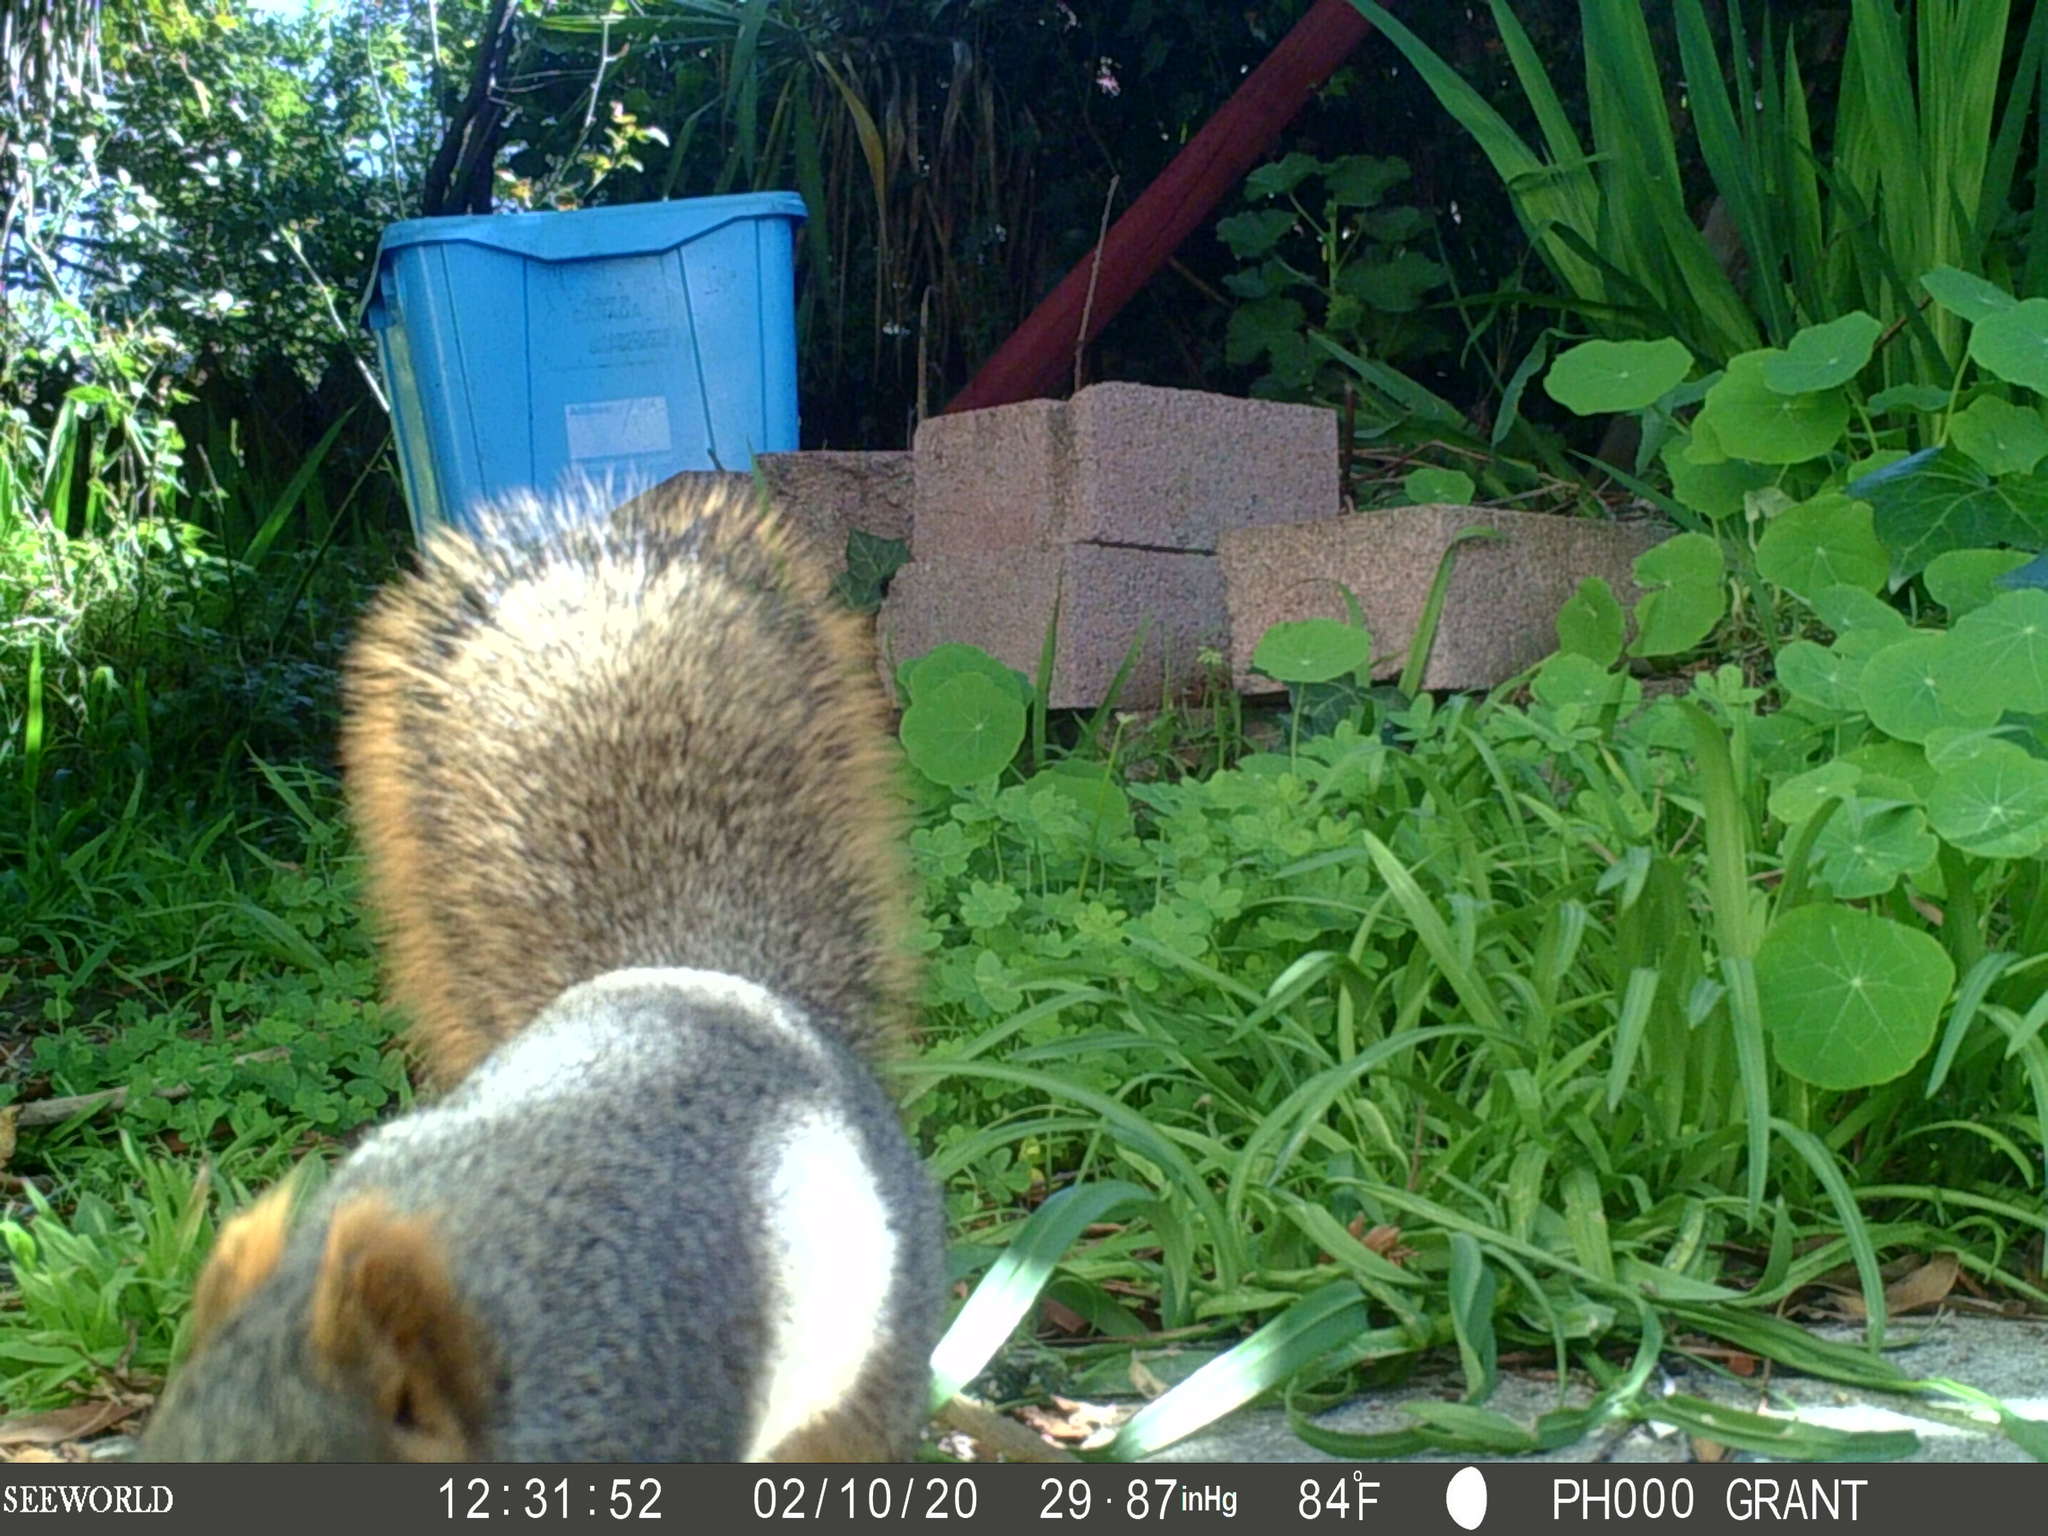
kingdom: Animalia
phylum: Chordata
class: Mammalia
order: Rodentia
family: Sciuridae
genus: Sciurus
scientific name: Sciurus niger
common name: Fox squirrel
